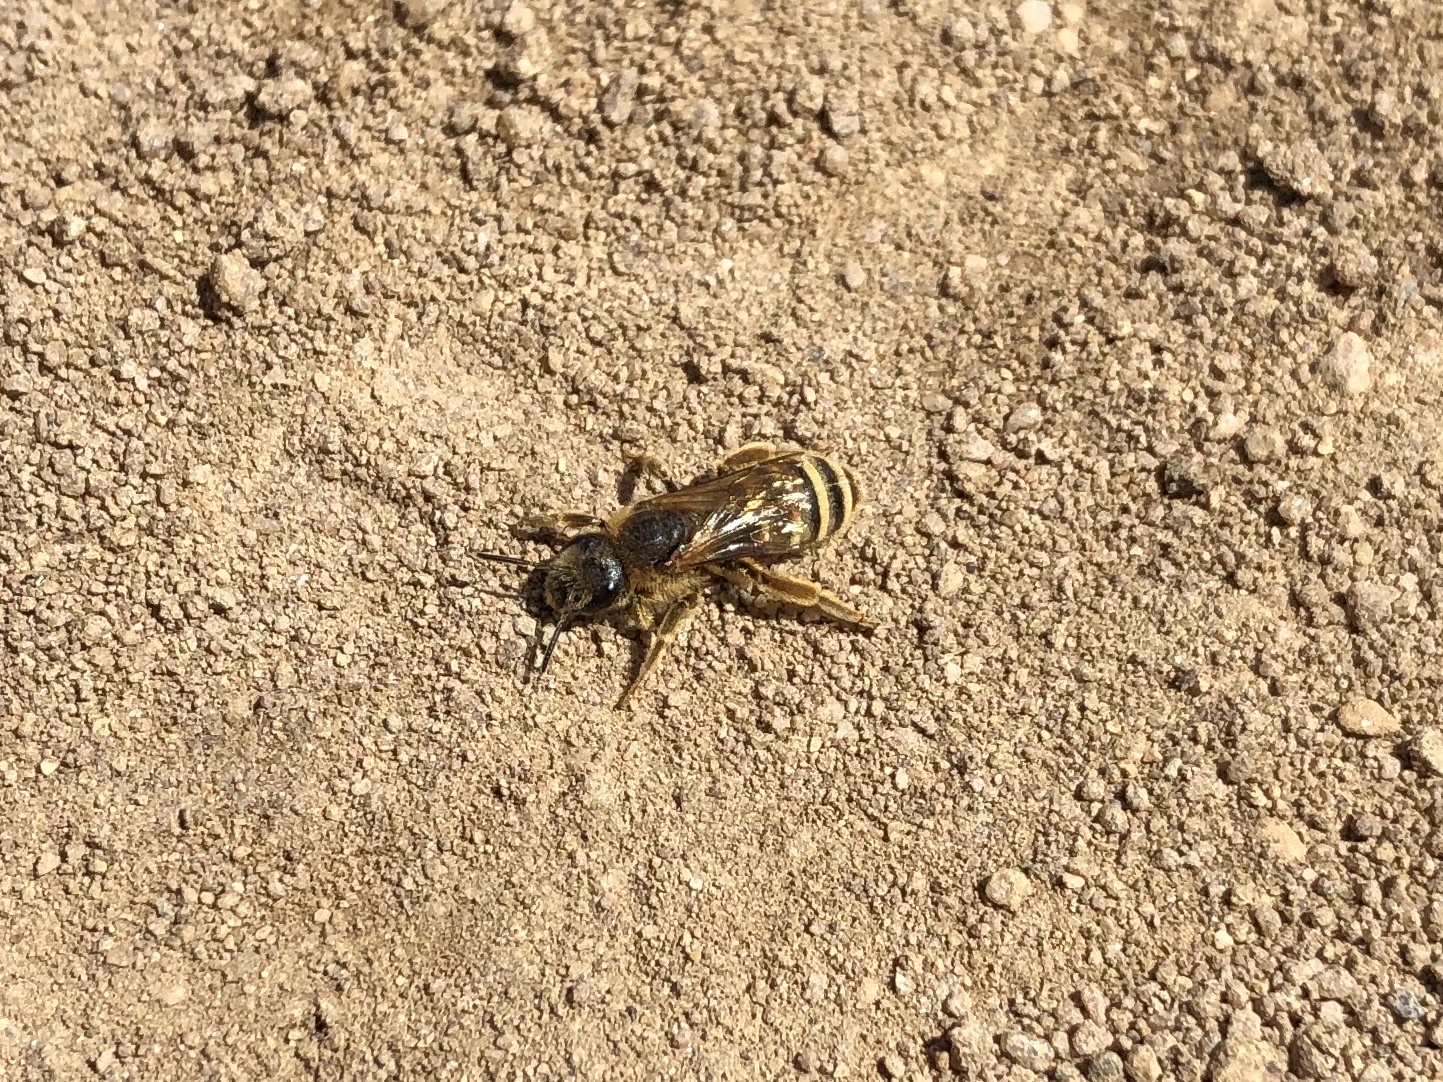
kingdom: Animalia
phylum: Arthropoda
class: Insecta
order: Hymenoptera
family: Halictidae
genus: Halictus
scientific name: Halictus scabiosae
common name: Great banded furrow bee
